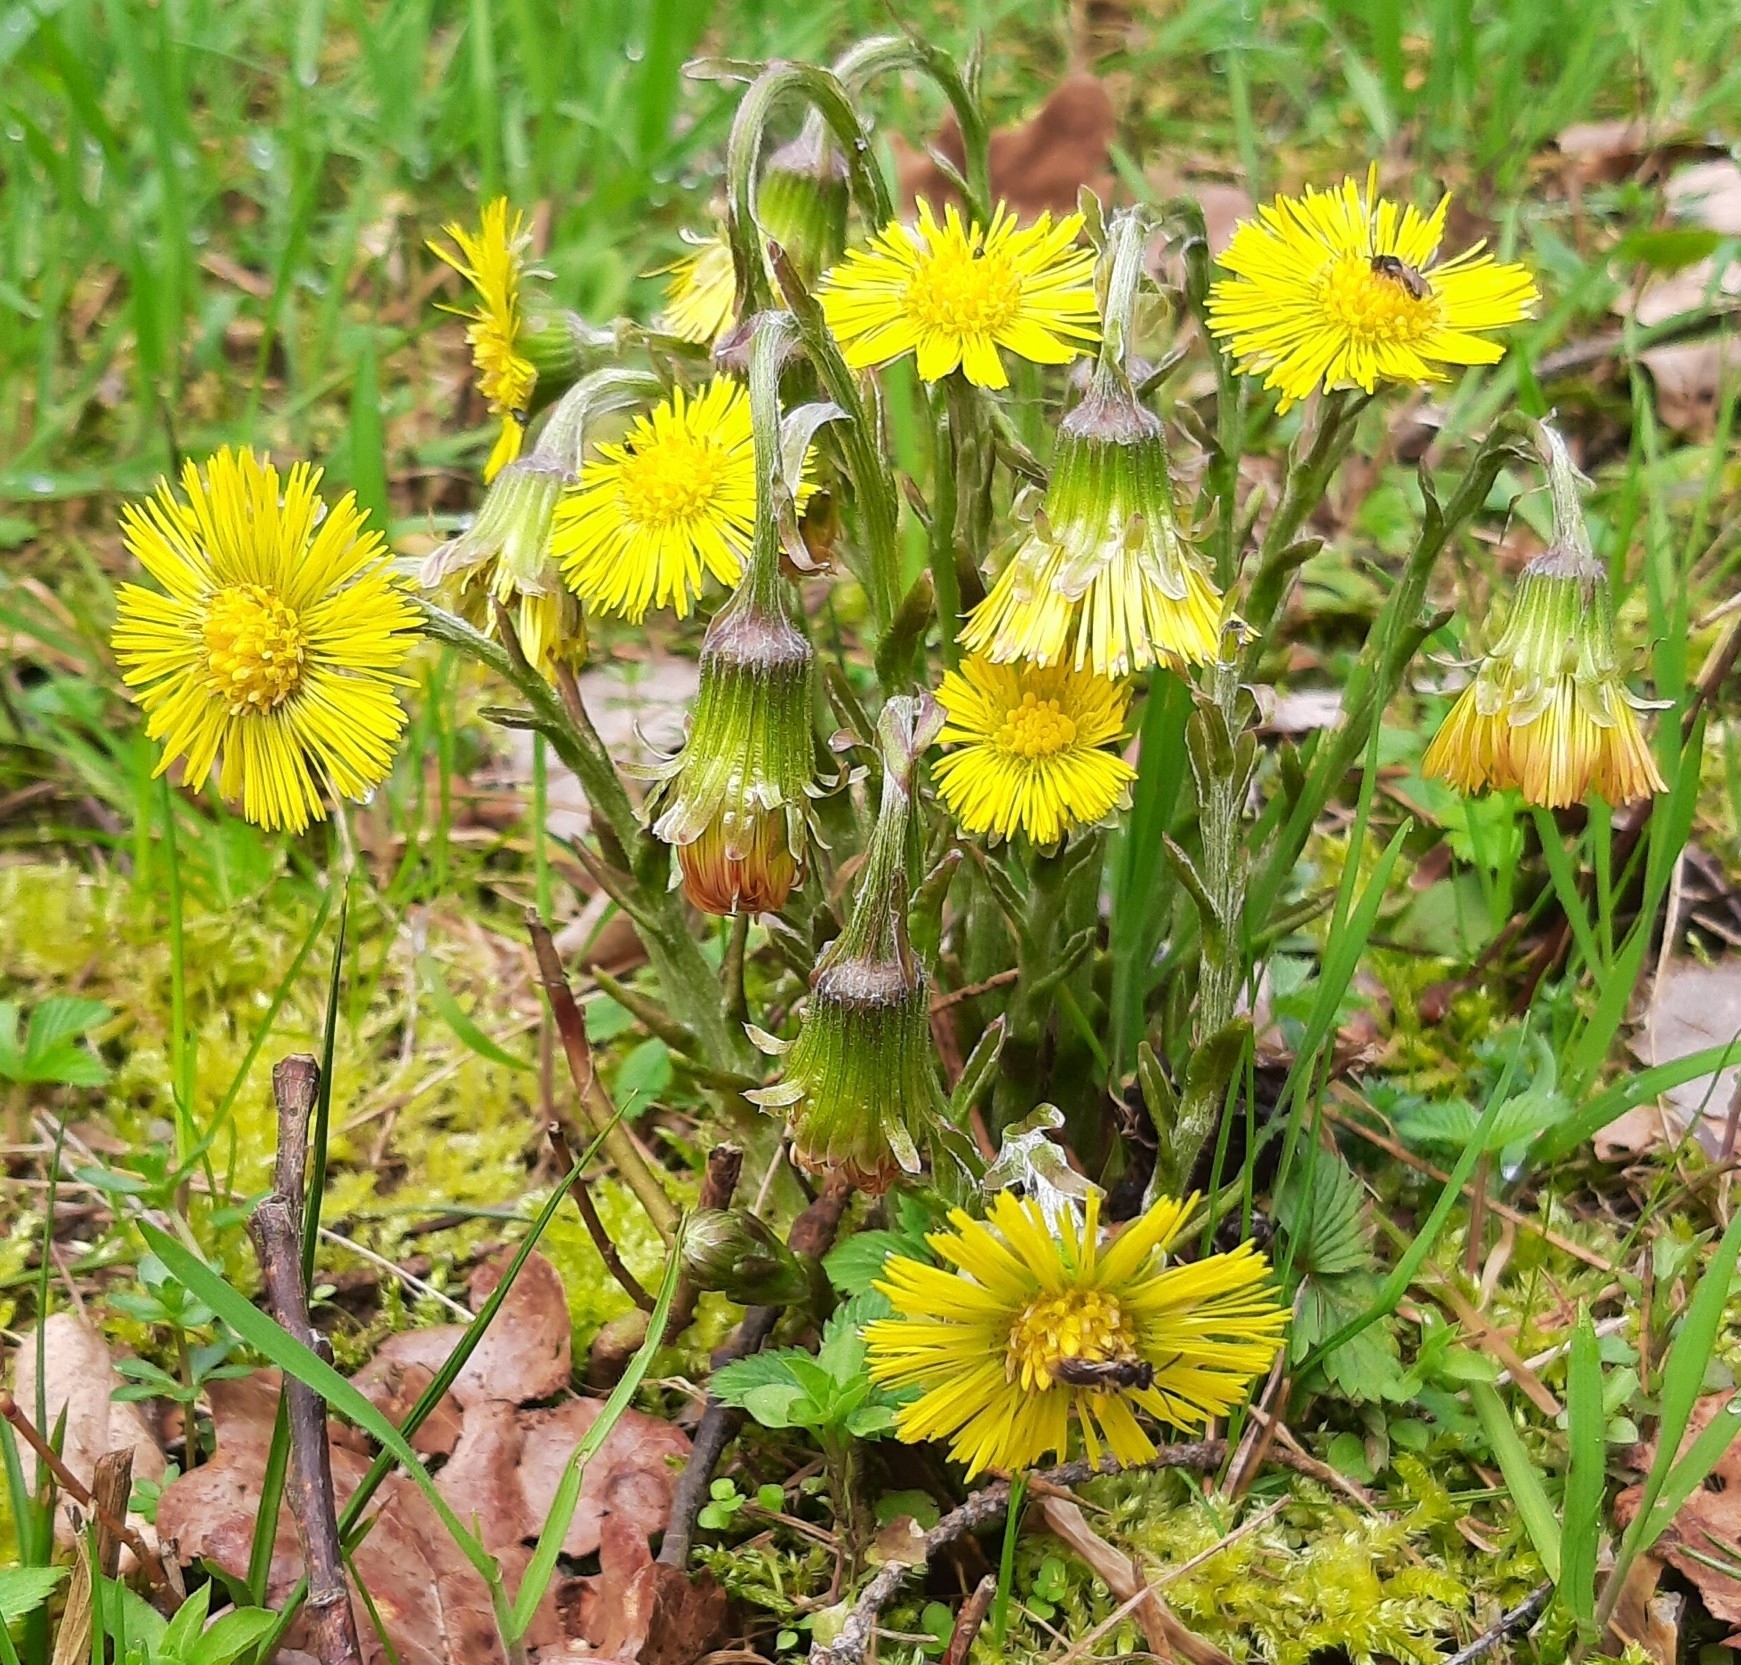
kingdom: Plantae
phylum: Tracheophyta
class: Magnoliopsida
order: Asterales
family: Asteraceae
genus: Tussilago
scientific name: Tussilago farfara
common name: Coltsfoot
